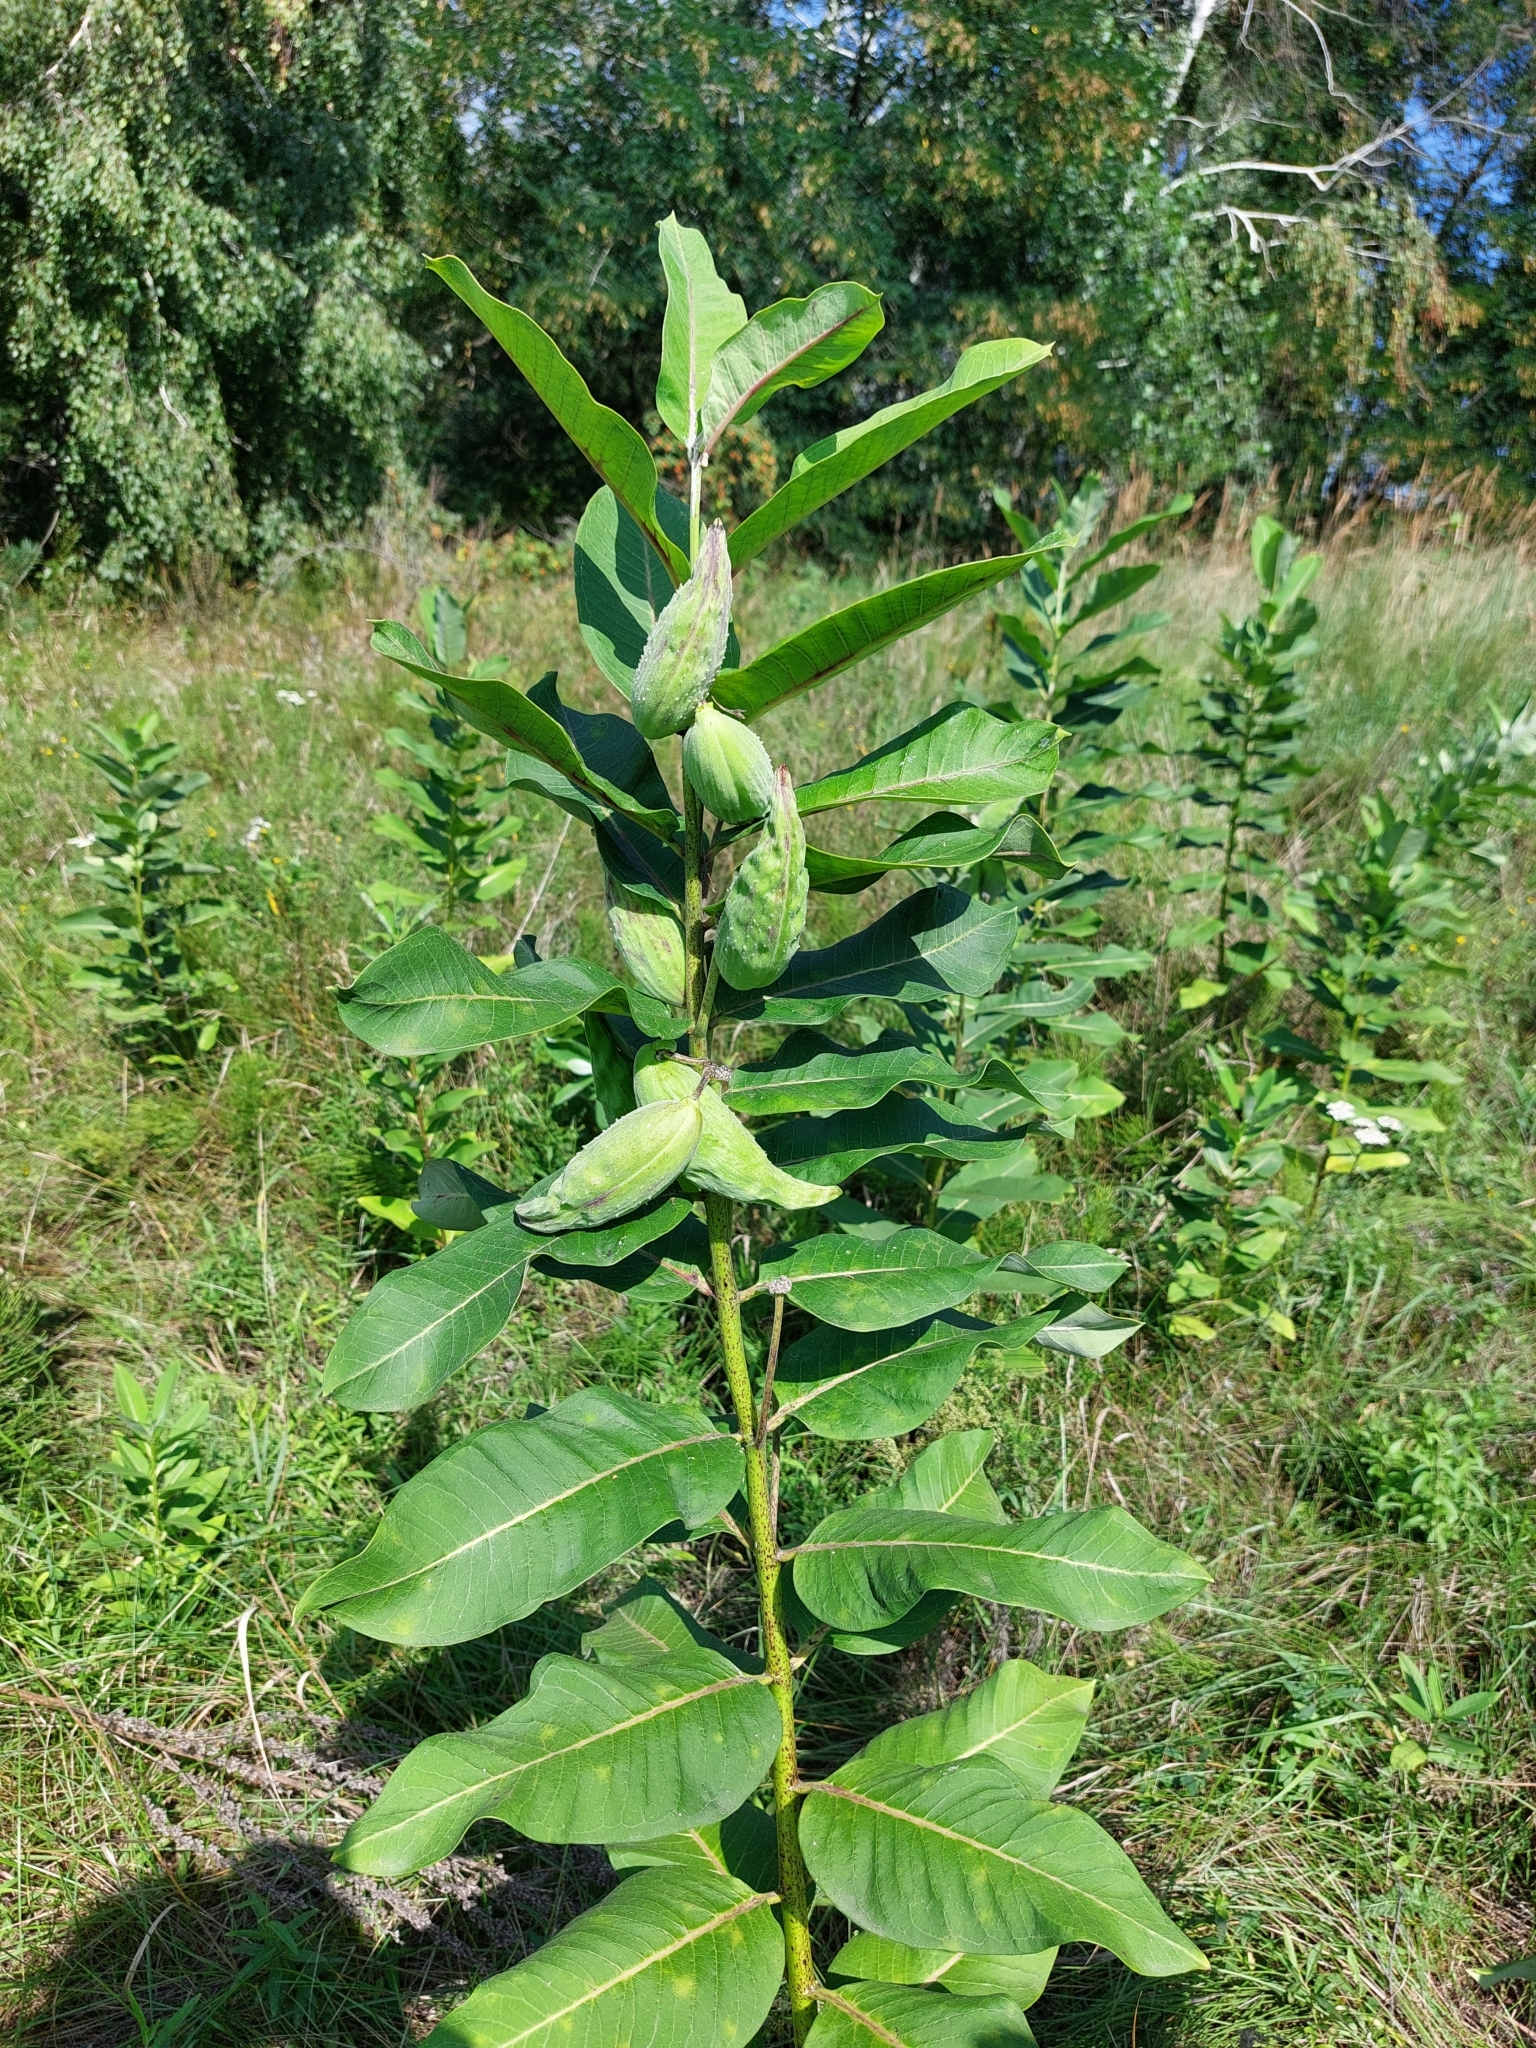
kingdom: Plantae
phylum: Tracheophyta
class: Magnoliopsida
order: Gentianales
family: Apocynaceae
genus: Asclepias
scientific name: Asclepias syriaca
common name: Common milkweed
